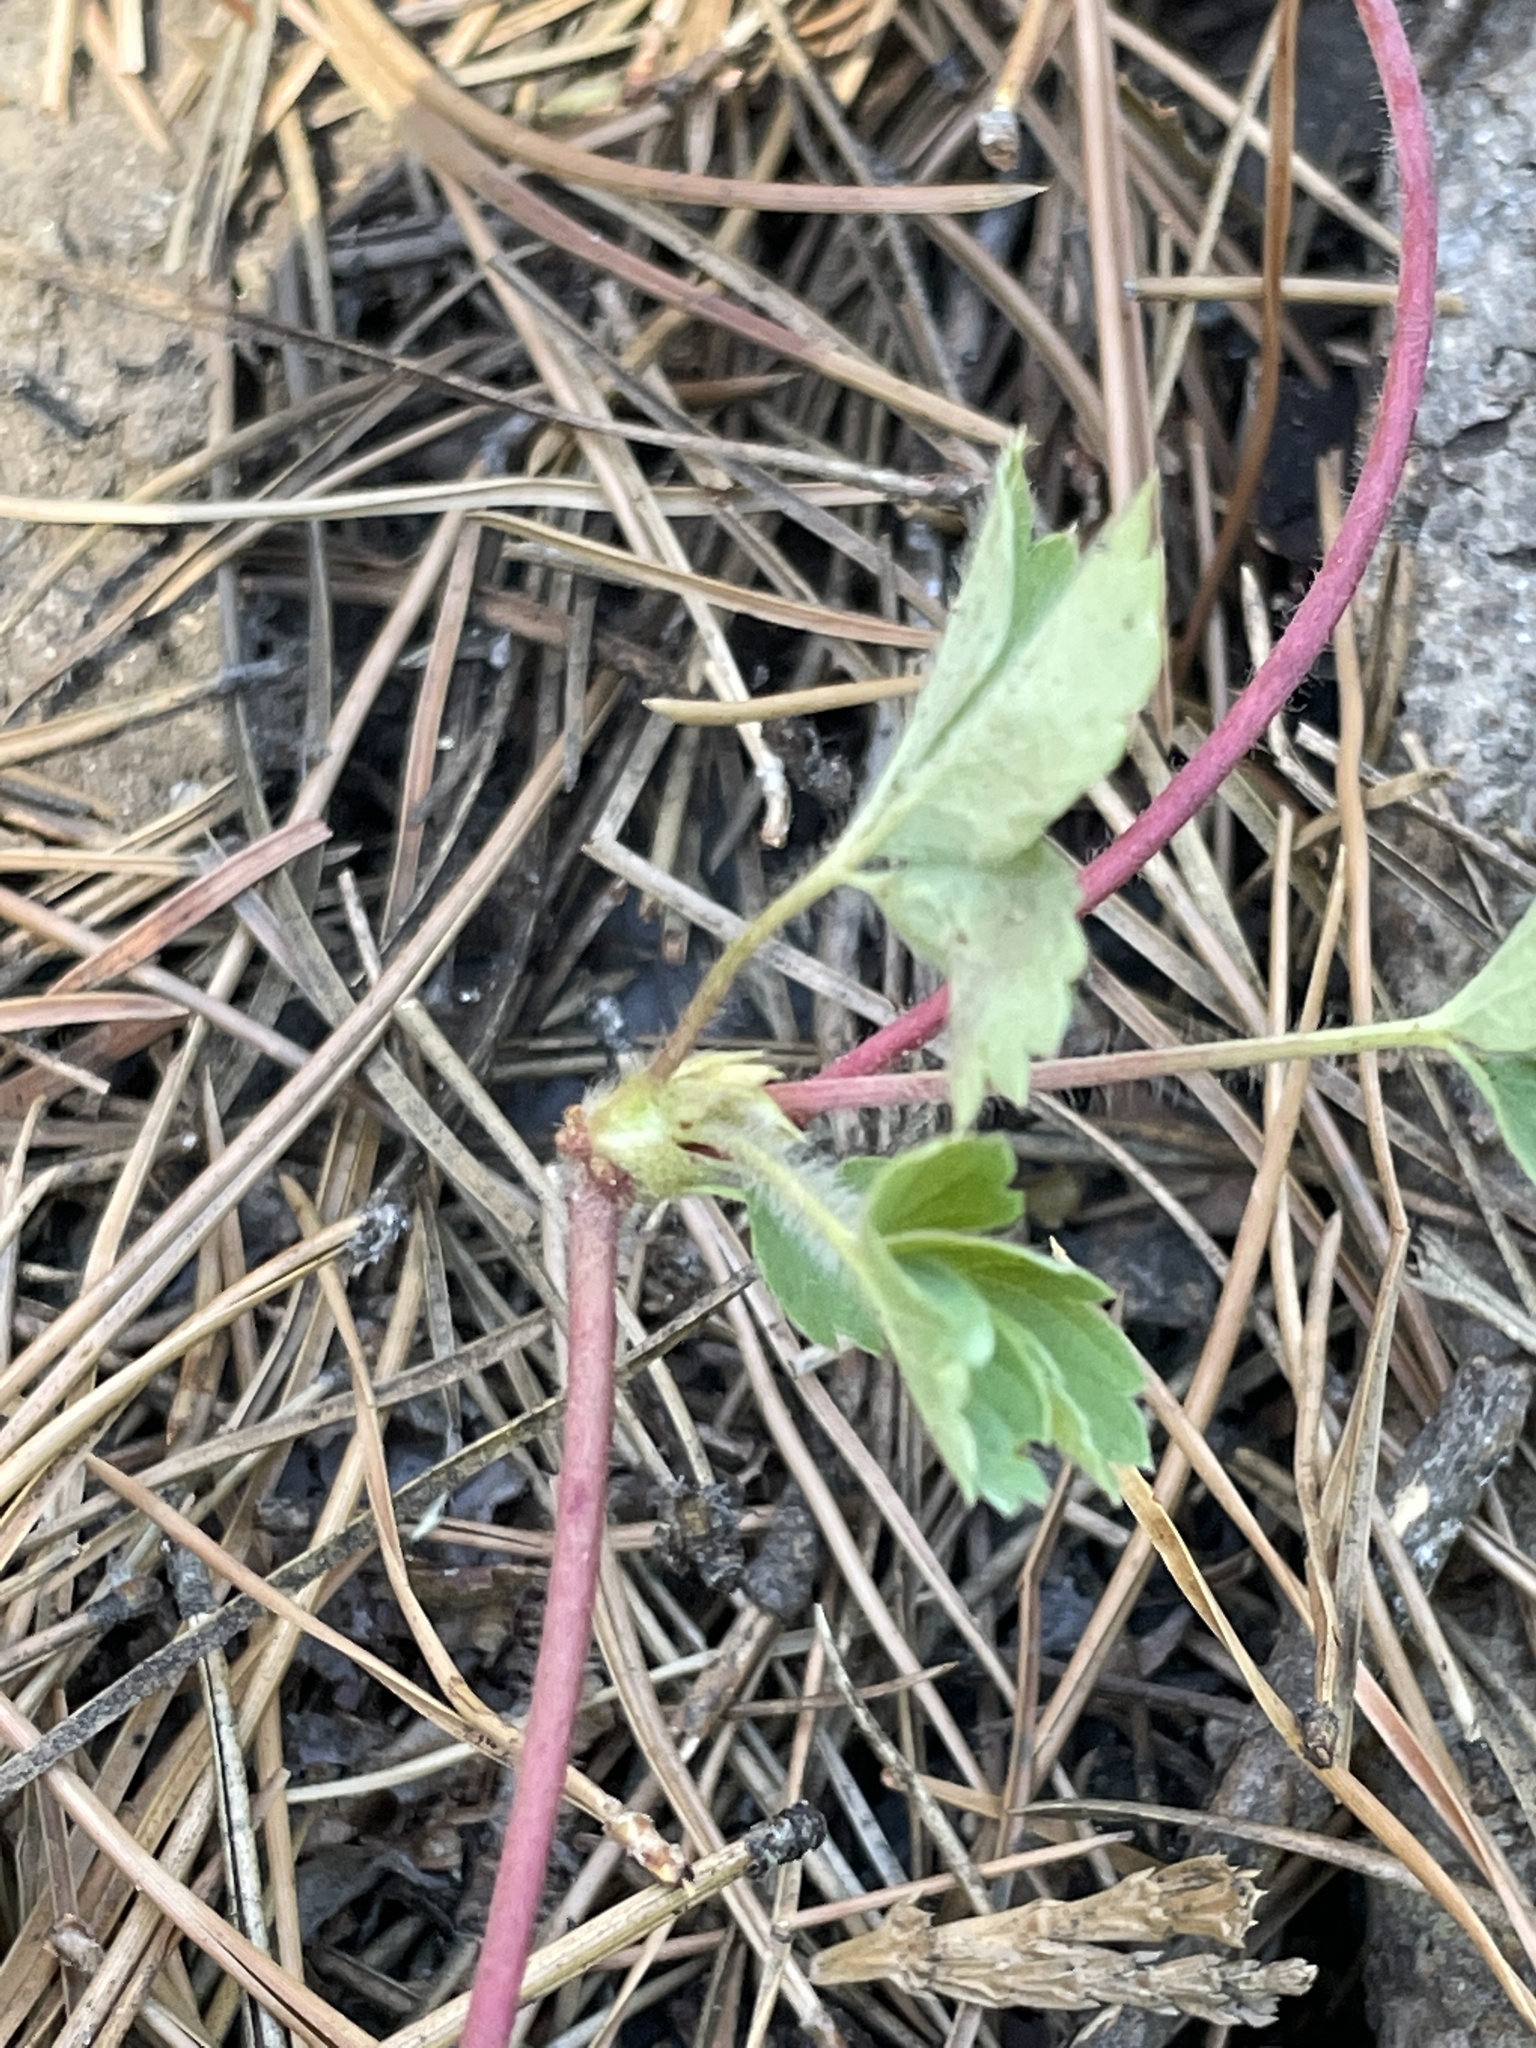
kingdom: Plantae
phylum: Tracheophyta
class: Magnoliopsida
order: Rosales
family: Rosaceae
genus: Fragaria
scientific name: Fragaria virginiana
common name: Thickleaved wild strawberry
